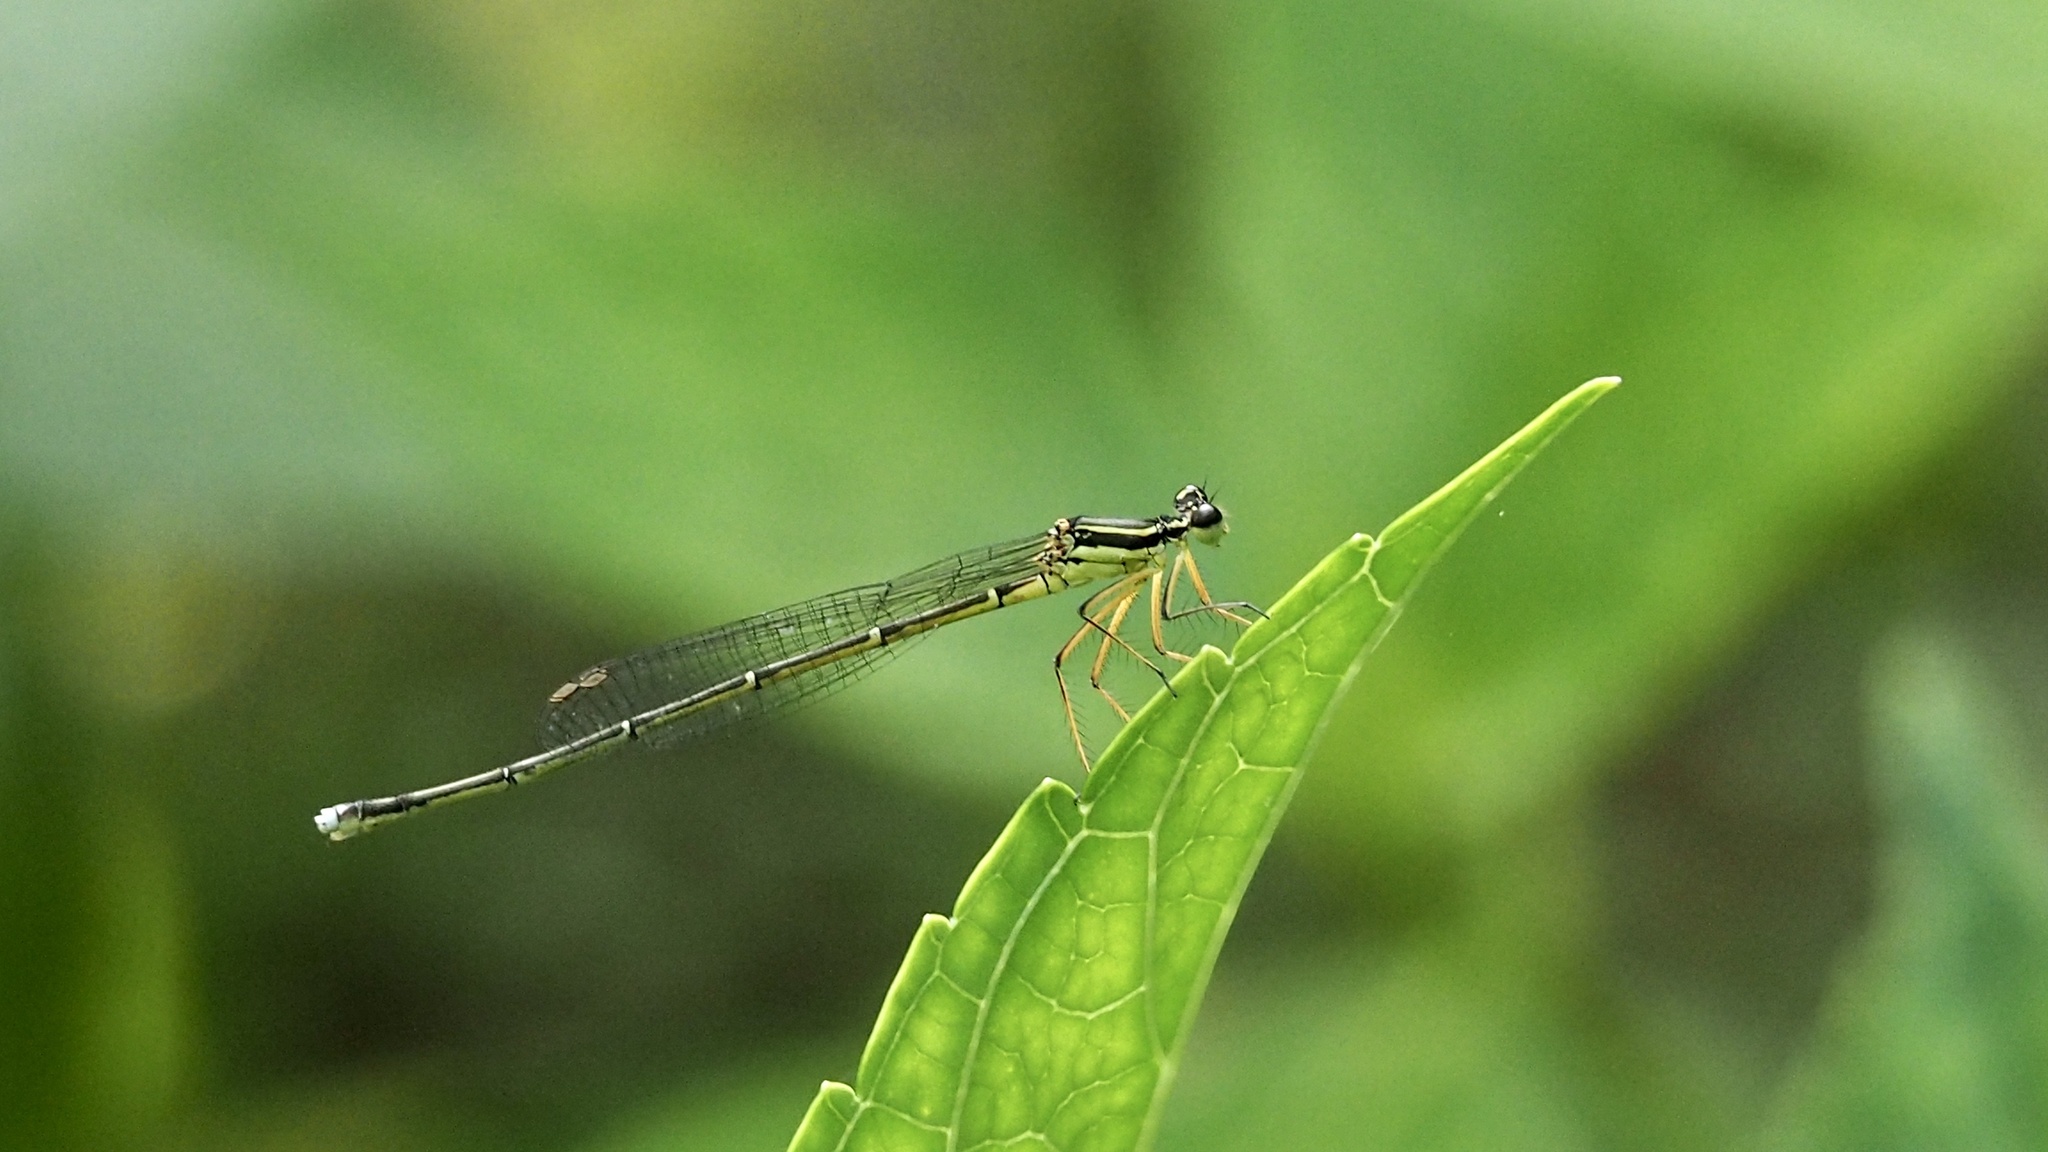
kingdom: Animalia
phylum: Arthropoda
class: Insecta
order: Odonata
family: Platycnemididae
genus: Pseudocopera
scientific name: Pseudocopera annulata
